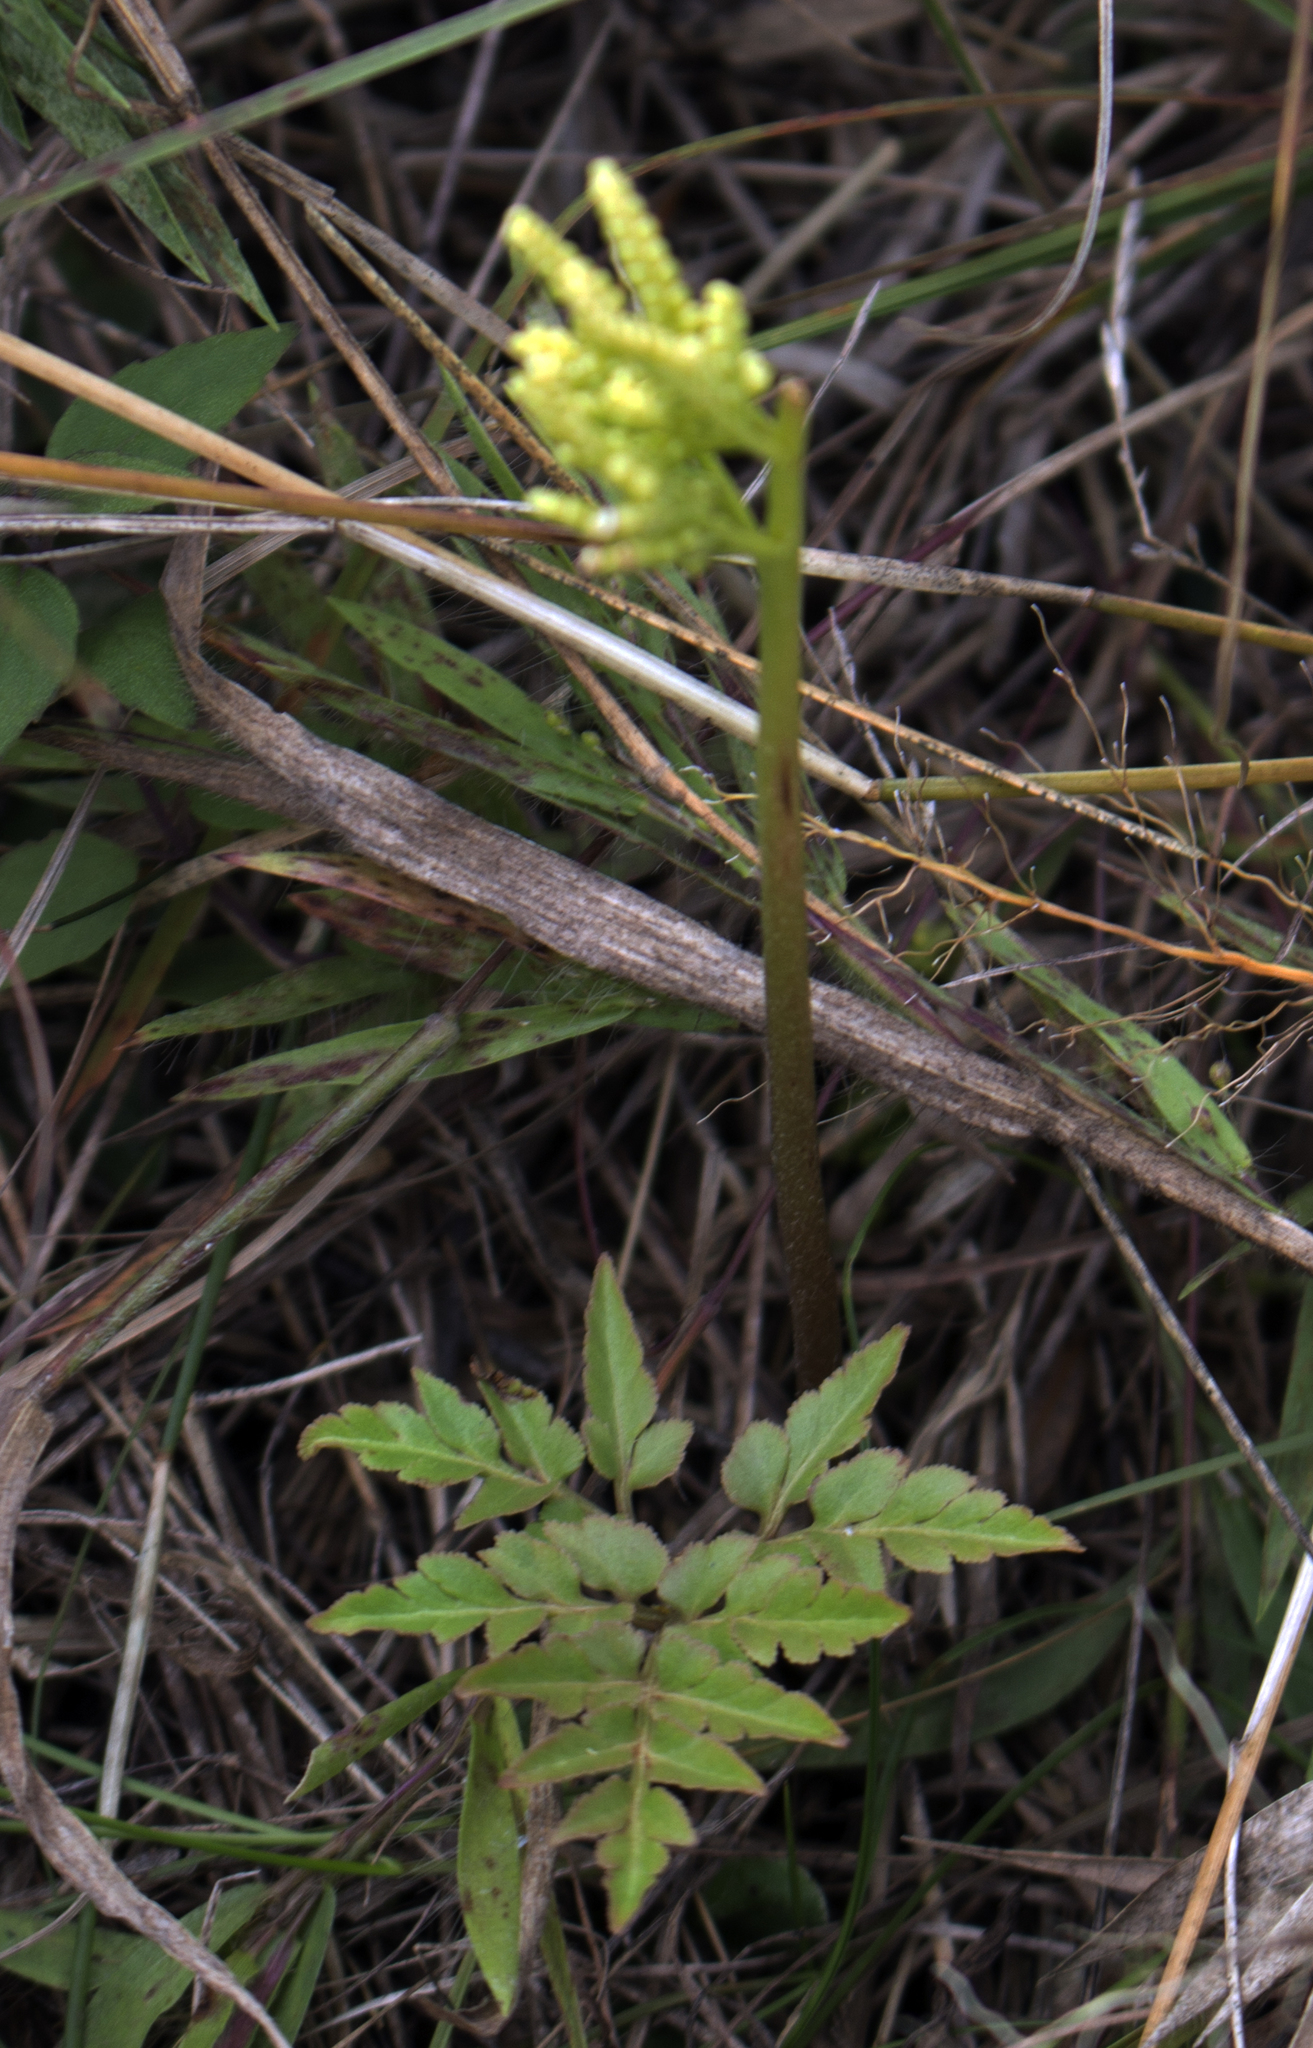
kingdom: Plantae
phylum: Tracheophyta
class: Polypodiopsida
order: Ophioglossales
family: Ophioglossaceae
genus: Sceptridium
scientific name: Sceptridium dissectum
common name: Cut-leaved grapefern
